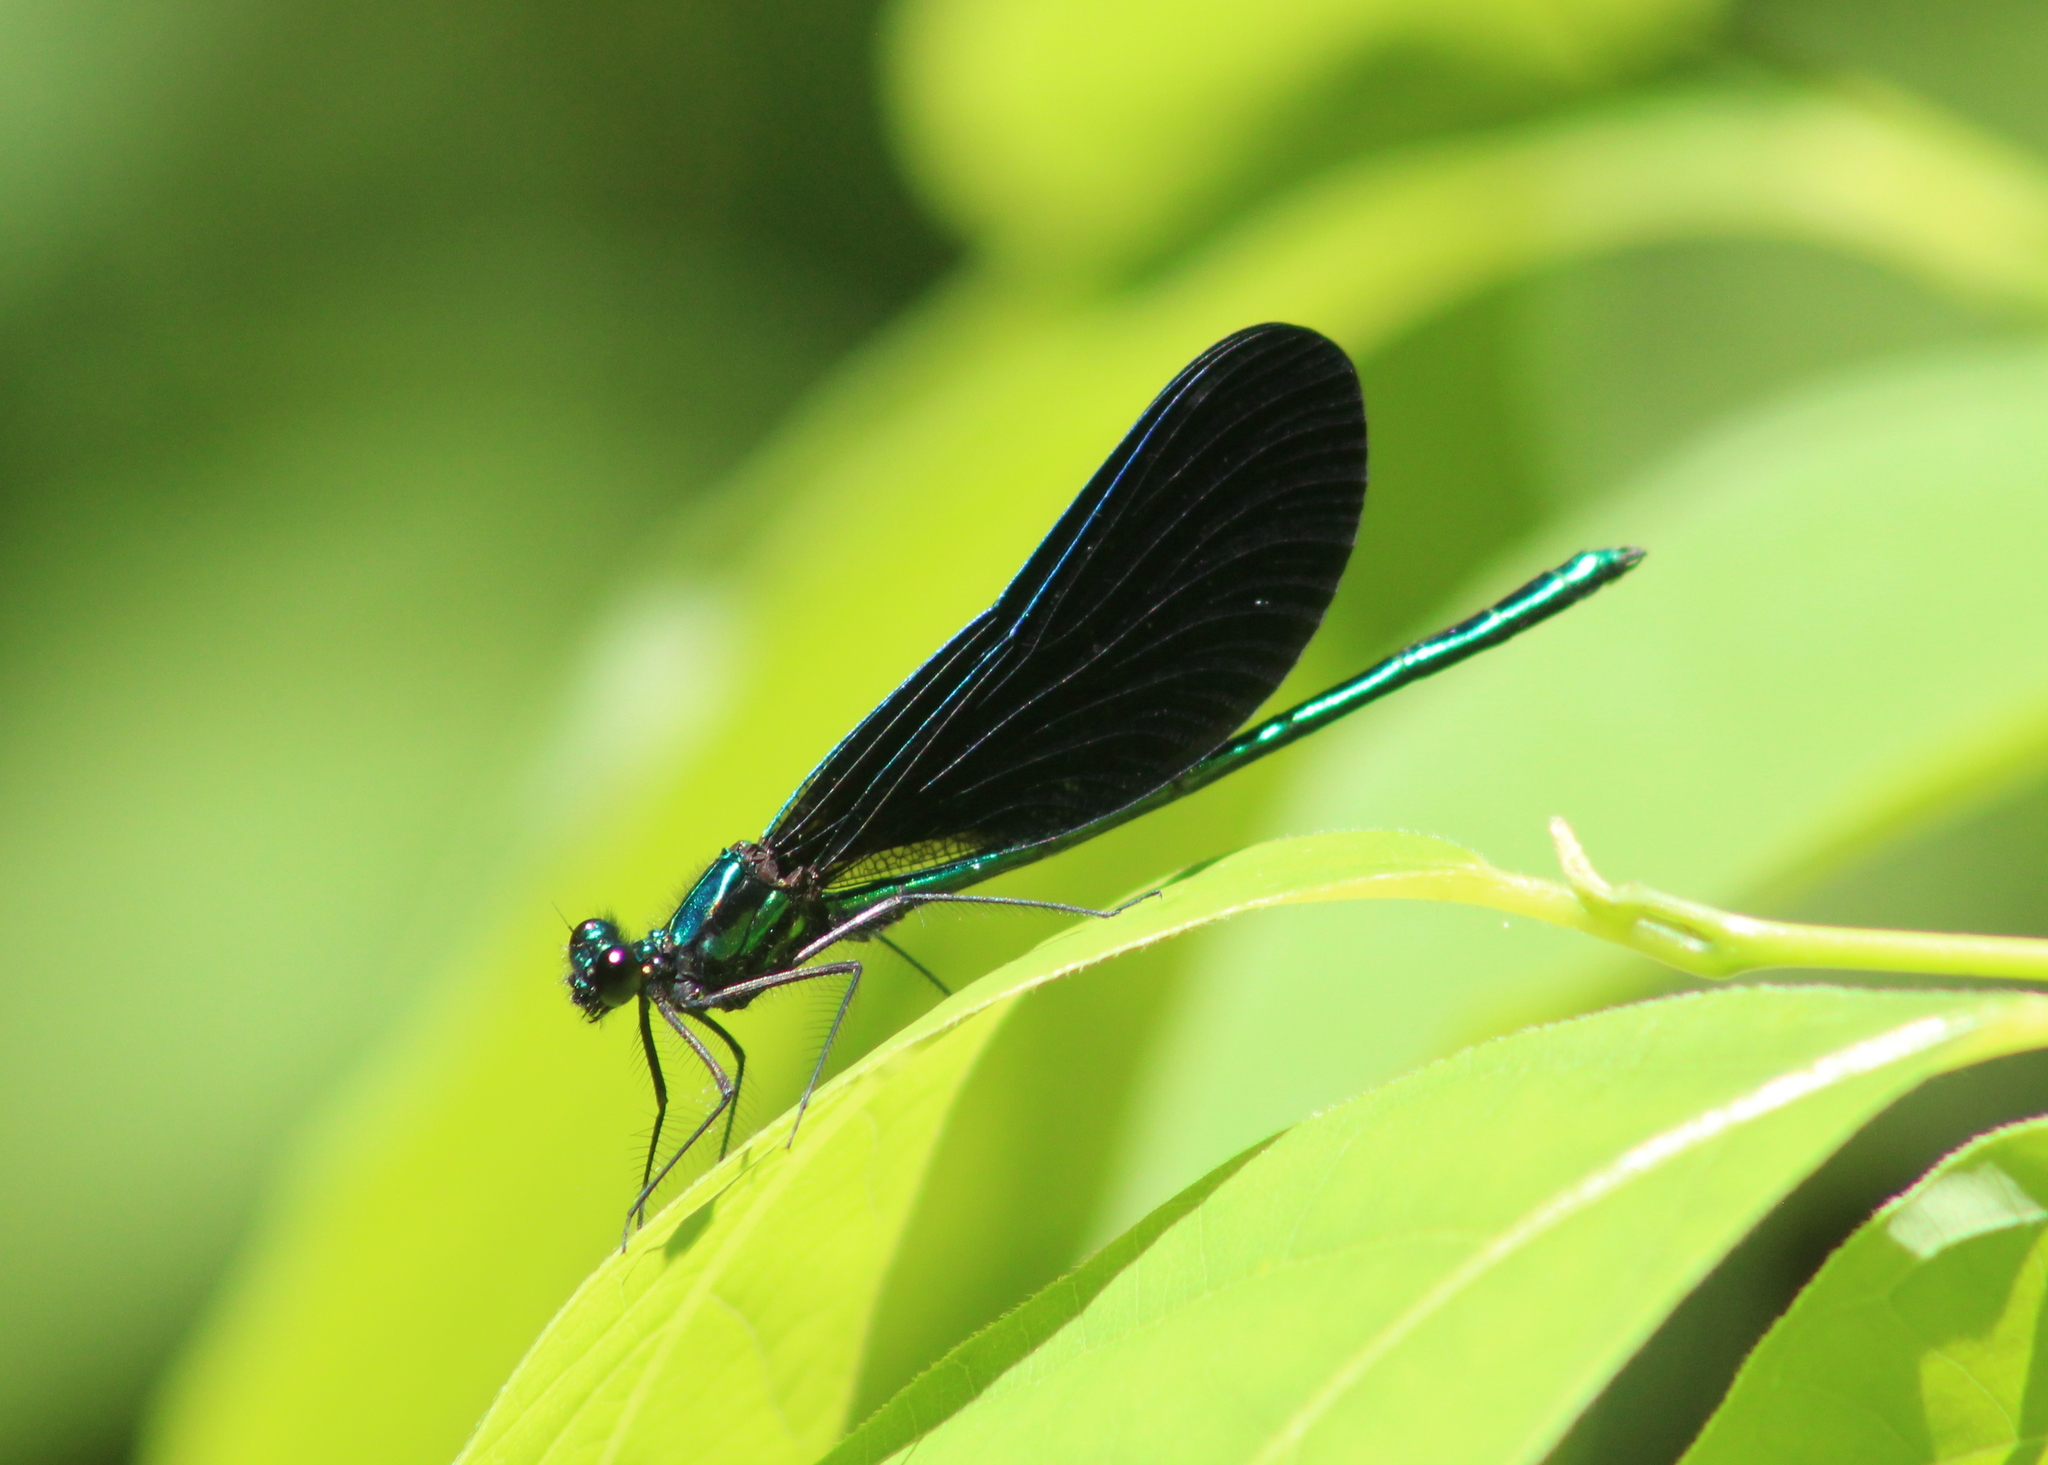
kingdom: Animalia
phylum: Arthropoda
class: Insecta
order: Odonata
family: Calopterygidae
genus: Calopteryx
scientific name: Calopteryx maculata
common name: Ebony jewelwing
